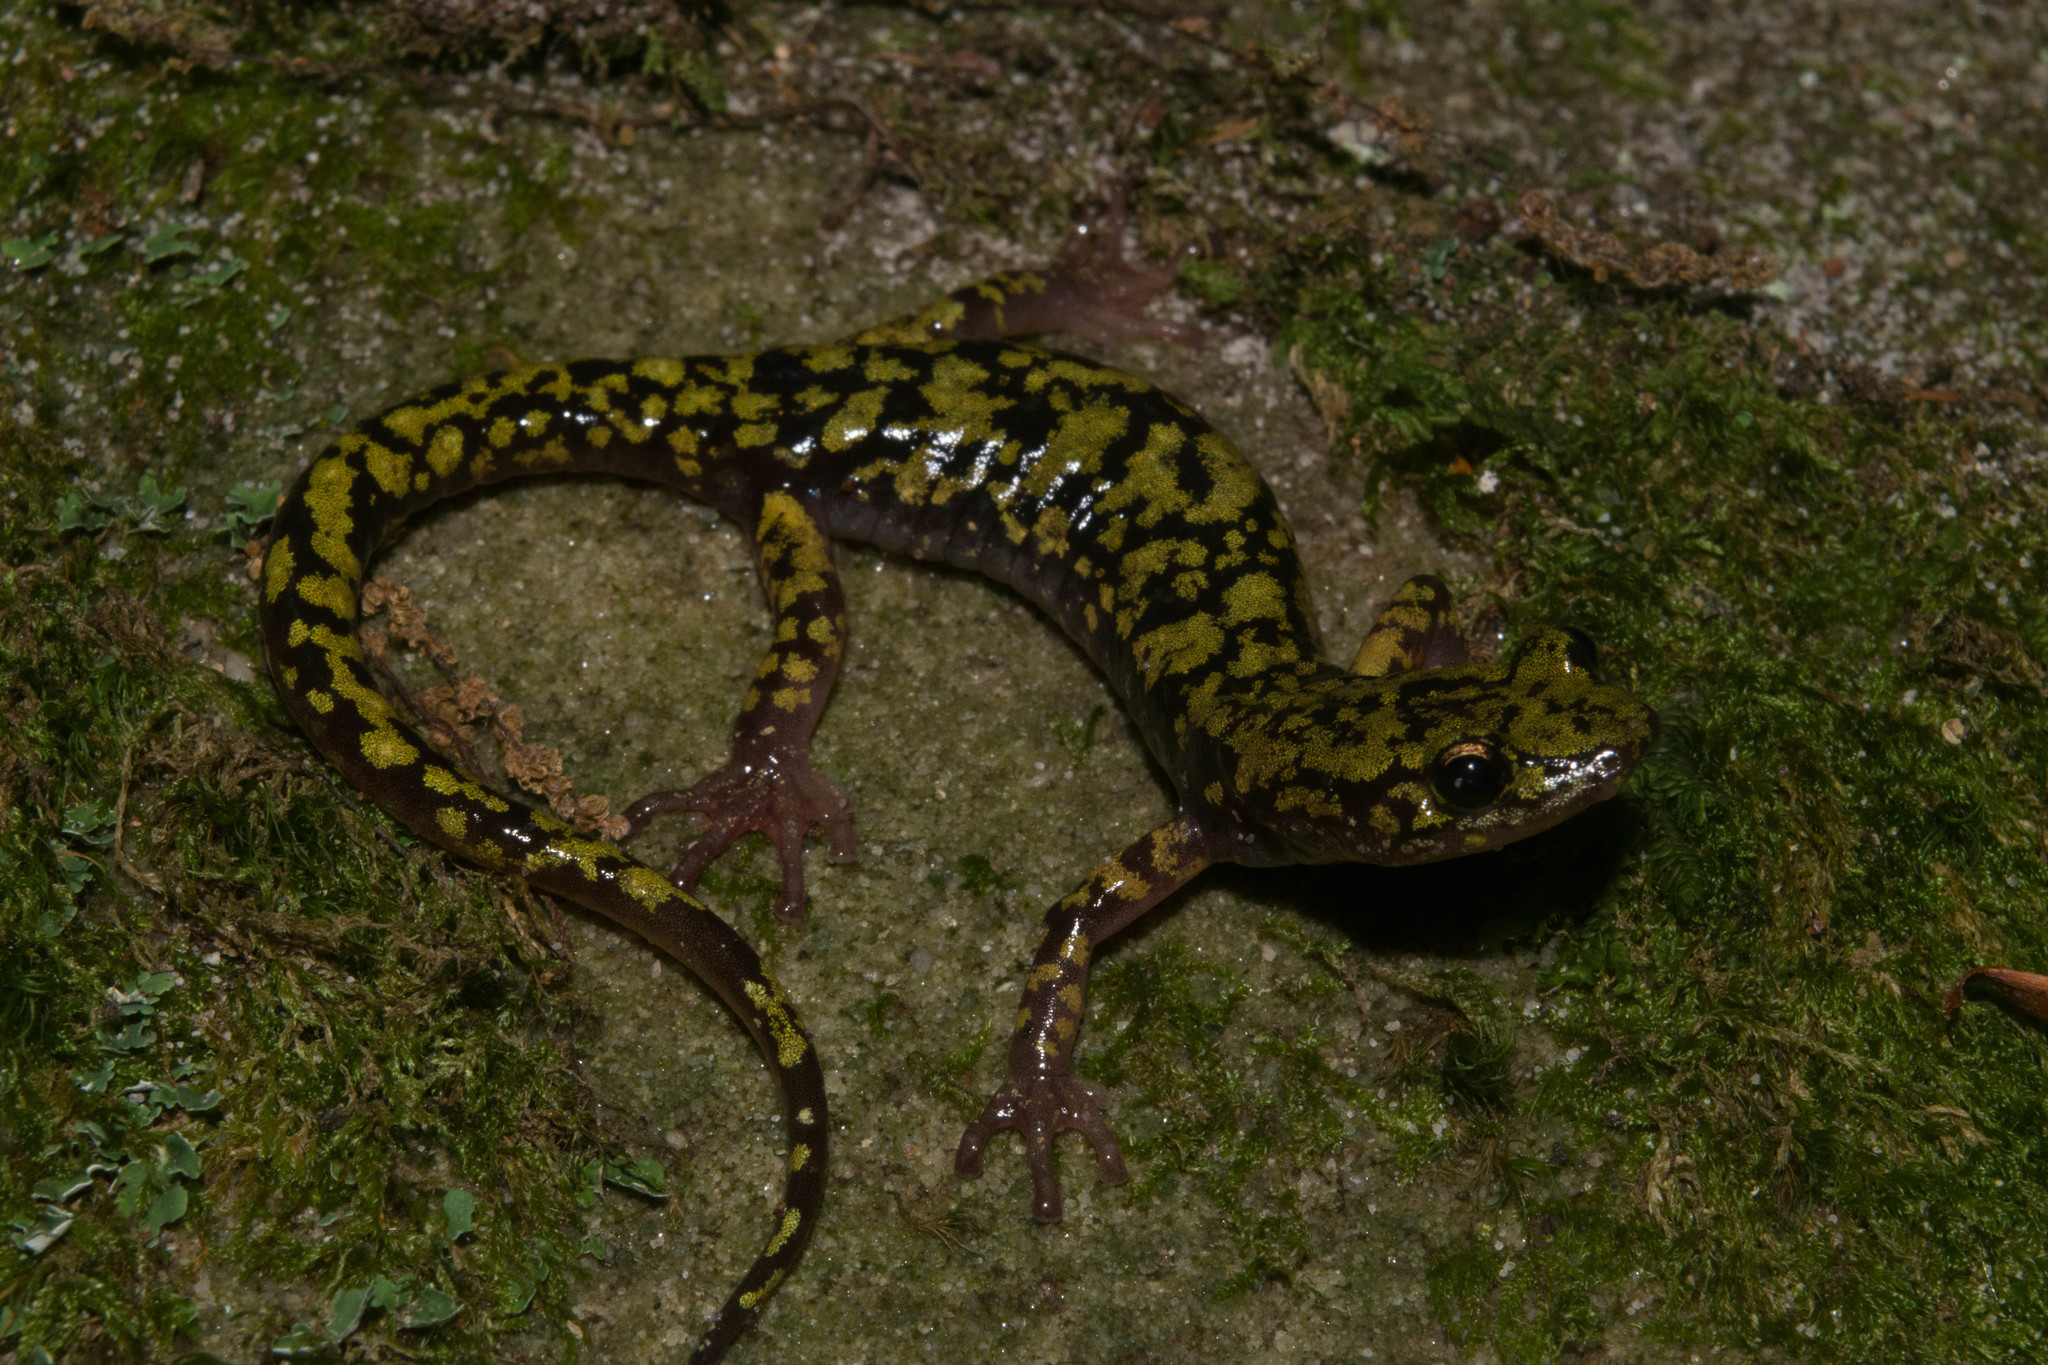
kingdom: Animalia
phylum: Chordata
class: Amphibia
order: Caudata
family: Plethodontidae
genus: Aneides
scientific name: Aneides aeneus
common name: Green salamander
